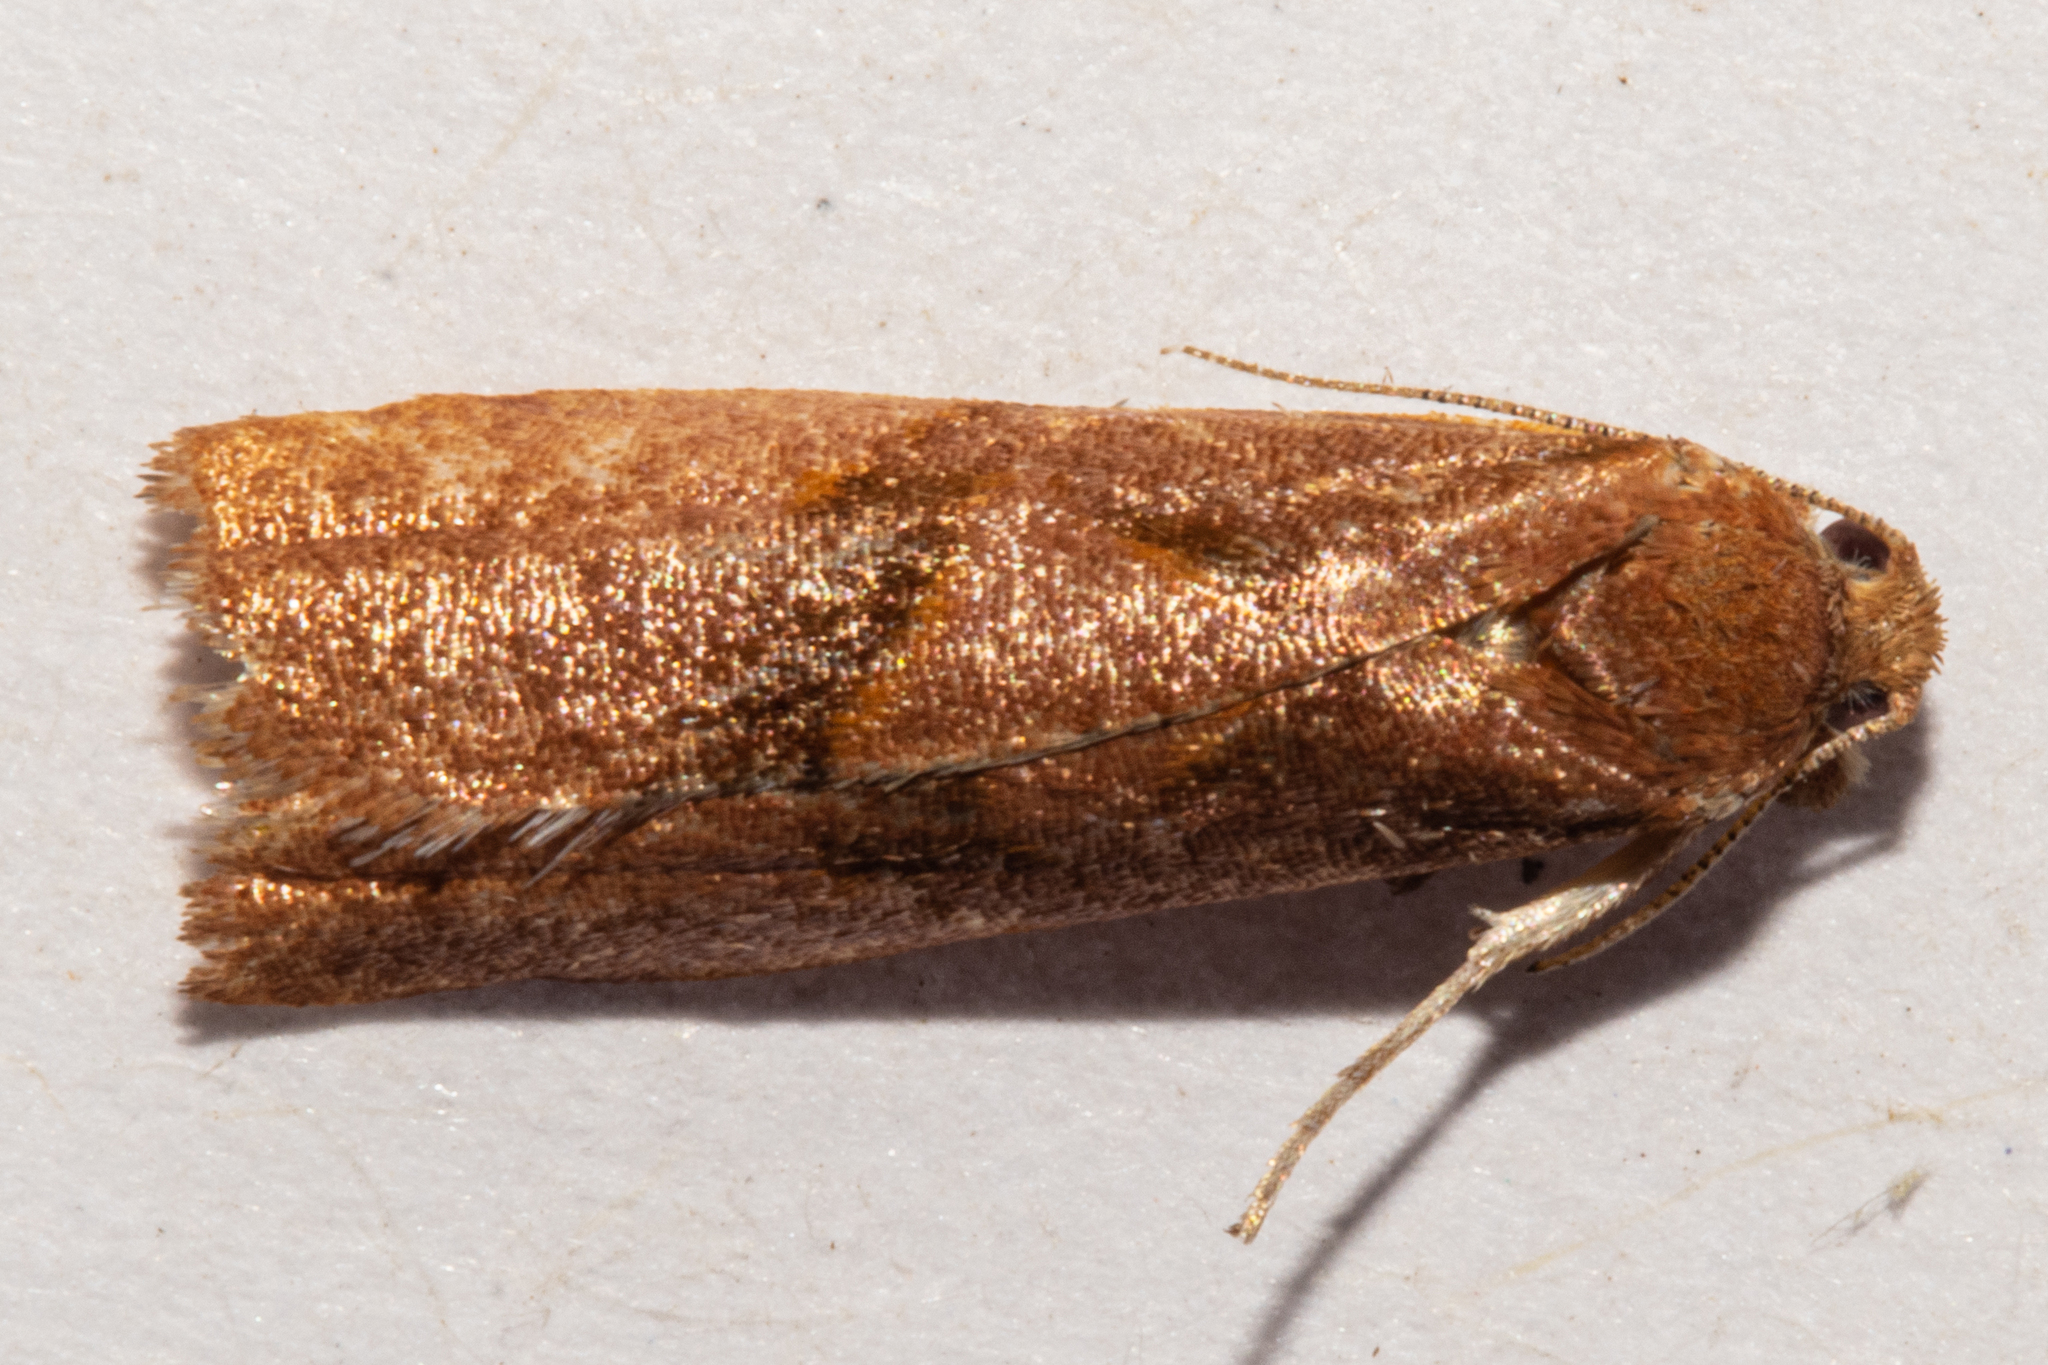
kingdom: Animalia
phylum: Arthropoda
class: Insecta
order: Lepidoptera
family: Tortricidae
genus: Apoctena
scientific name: Apoctena pictoriana
